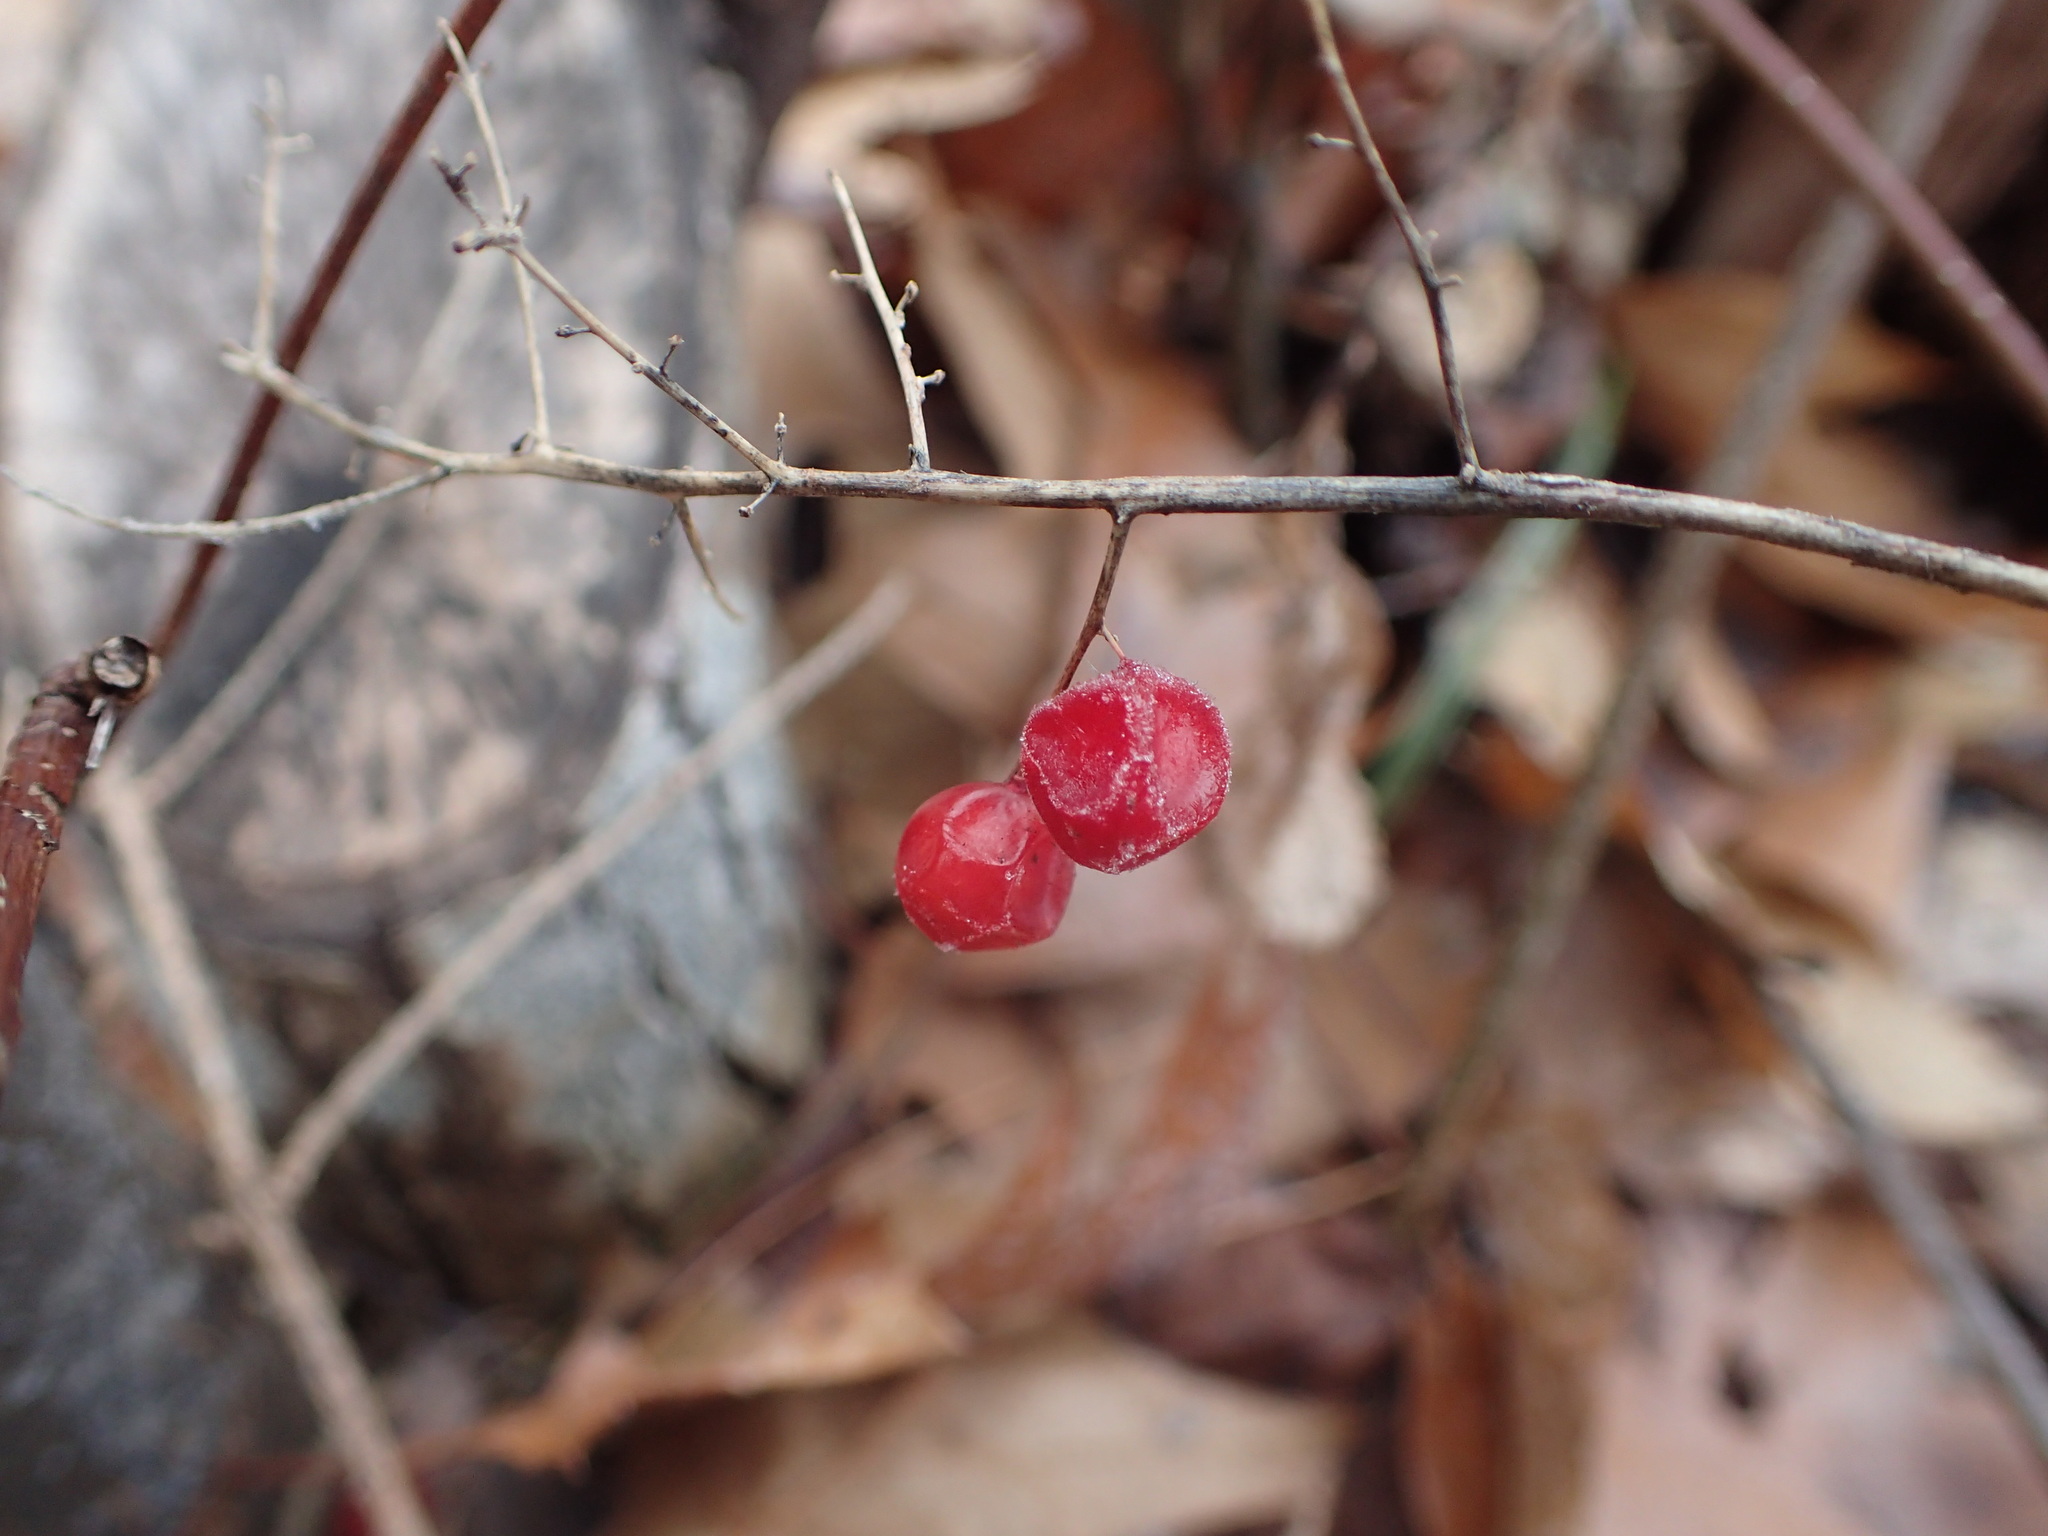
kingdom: Plantae
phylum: Tracheophyta
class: Liliopsida
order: Asparagales
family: Asparagaceae
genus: Maianthemum
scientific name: Maianthemum racemosum
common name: False spikenard
